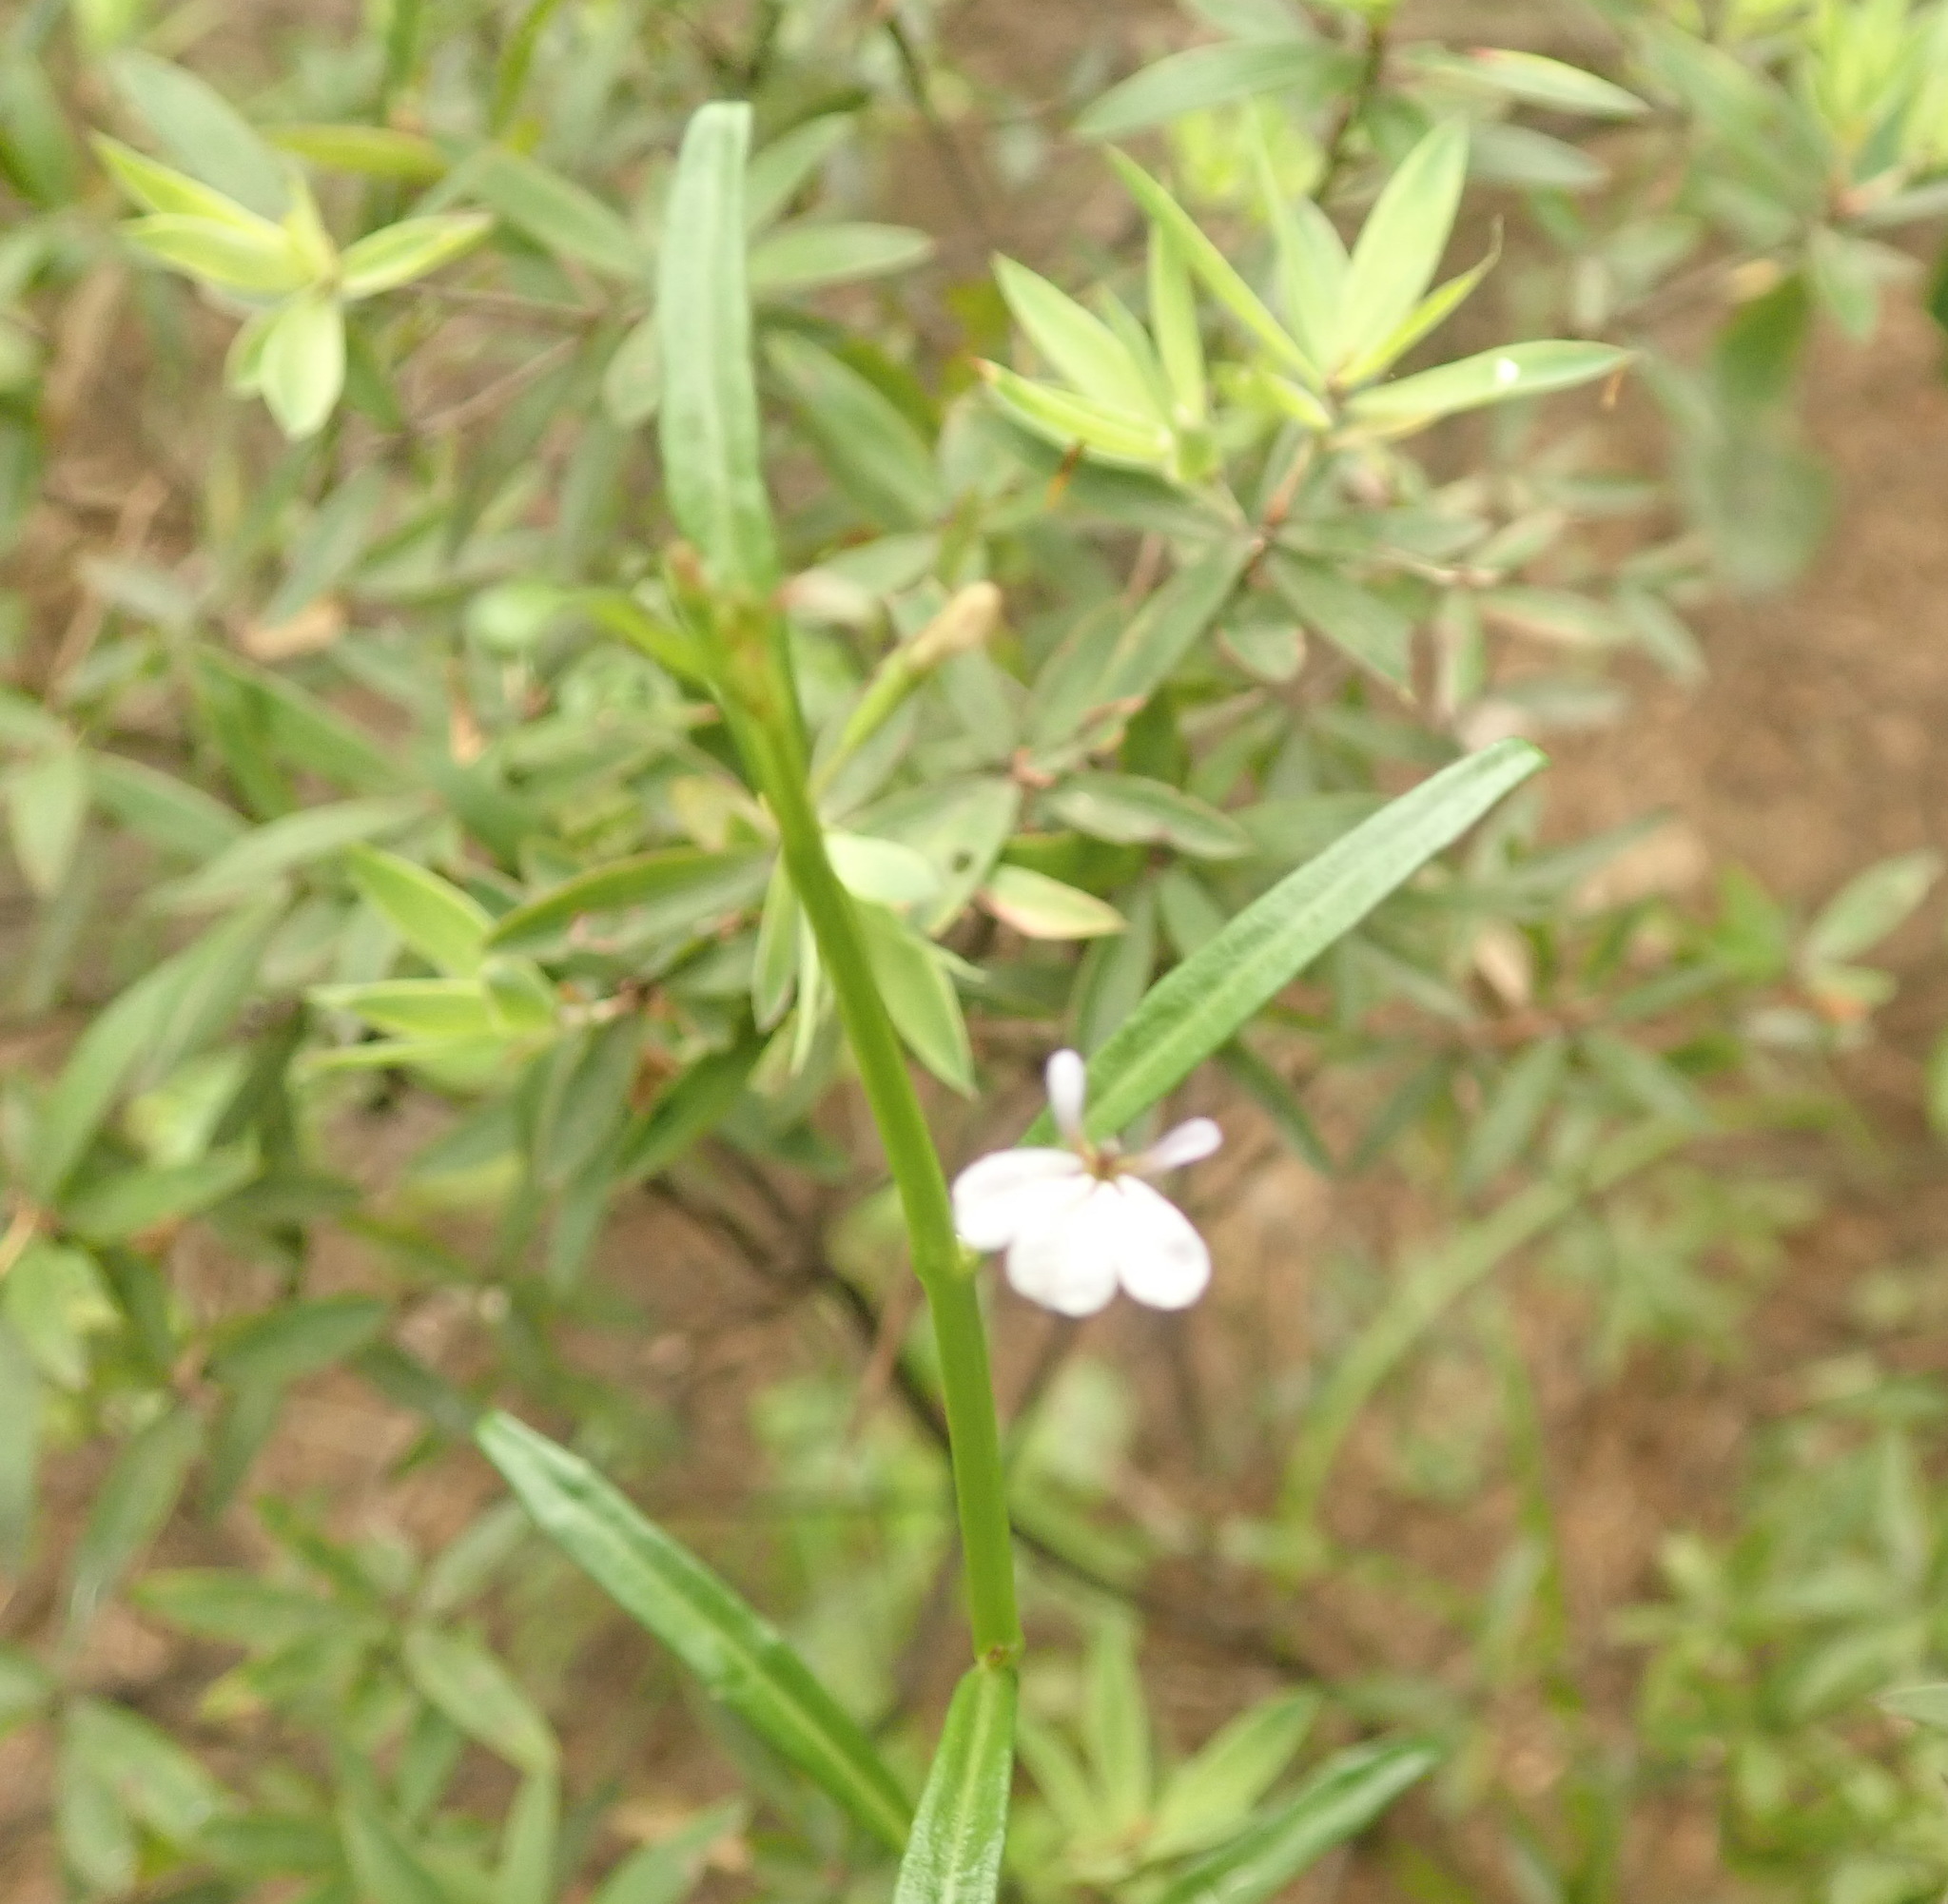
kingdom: Plantae
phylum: Tracheophyta
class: Magnoliopsida
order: Asterales
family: Campanulaceae
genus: Lobelia
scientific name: Lobelia anceps
